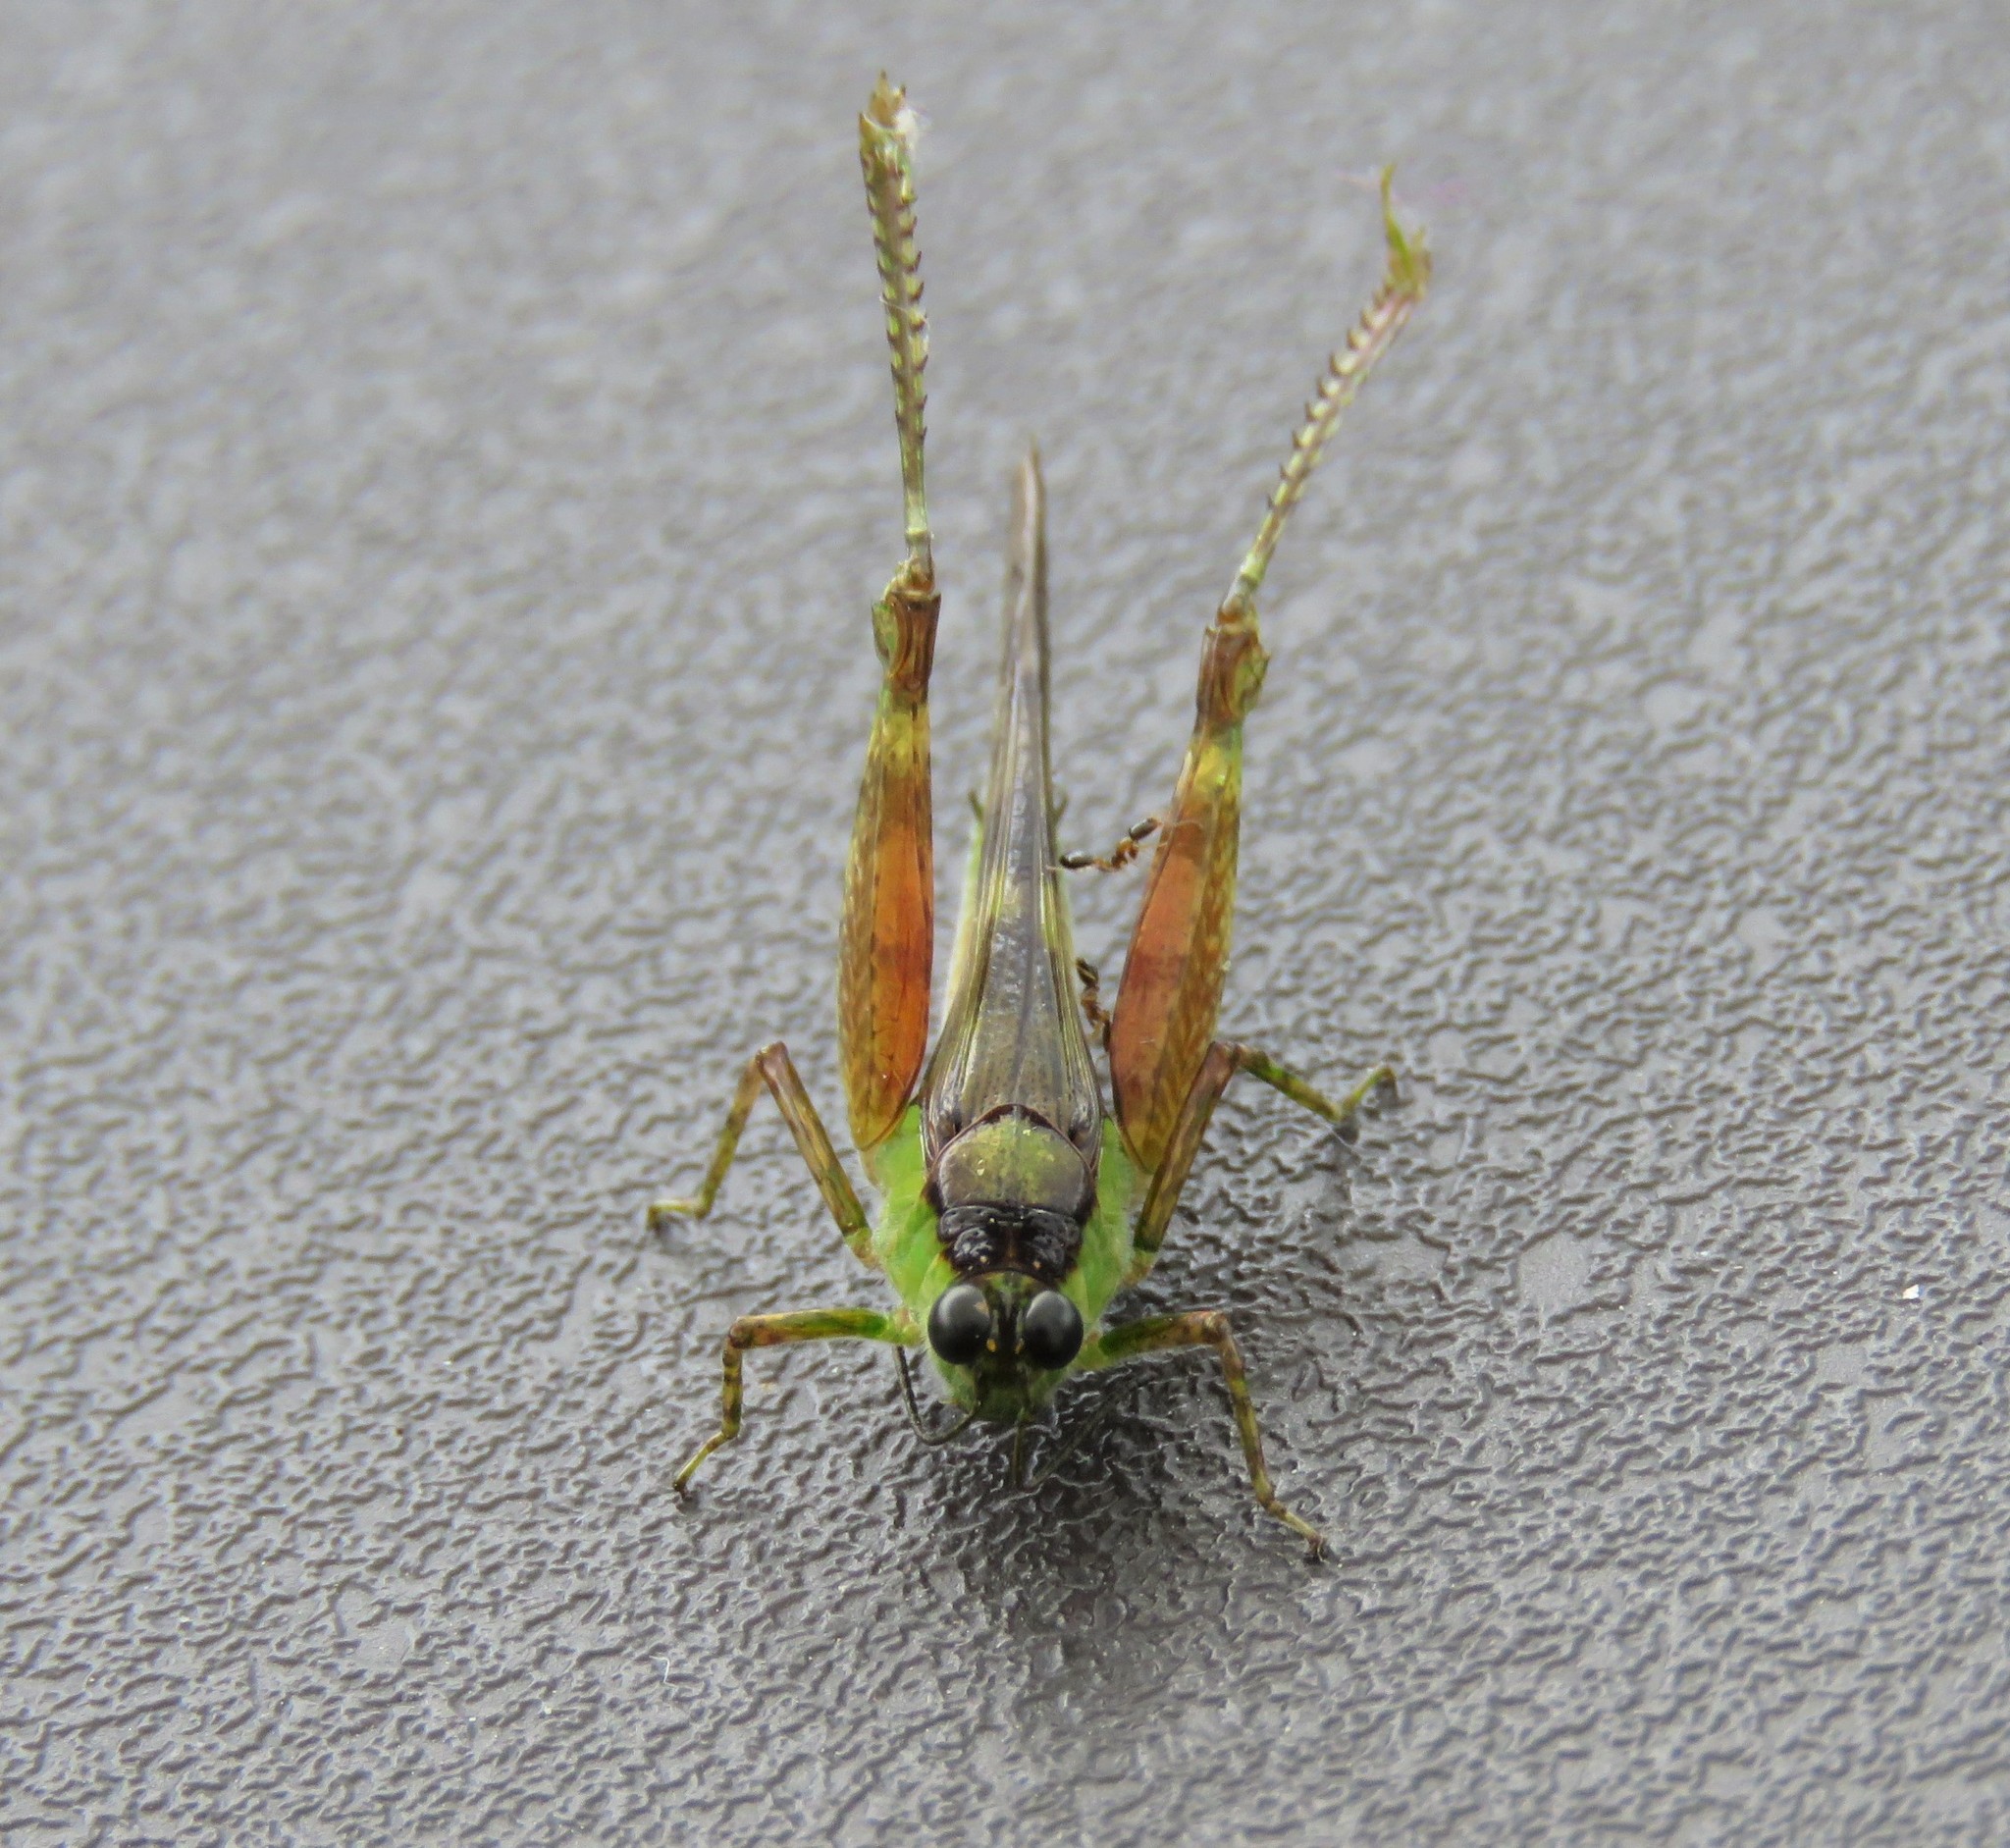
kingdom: Animalia
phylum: Arthropoda
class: Insecta
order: Orthoptera
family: Acrididae
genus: Paulinia
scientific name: Paulinia acuminata
